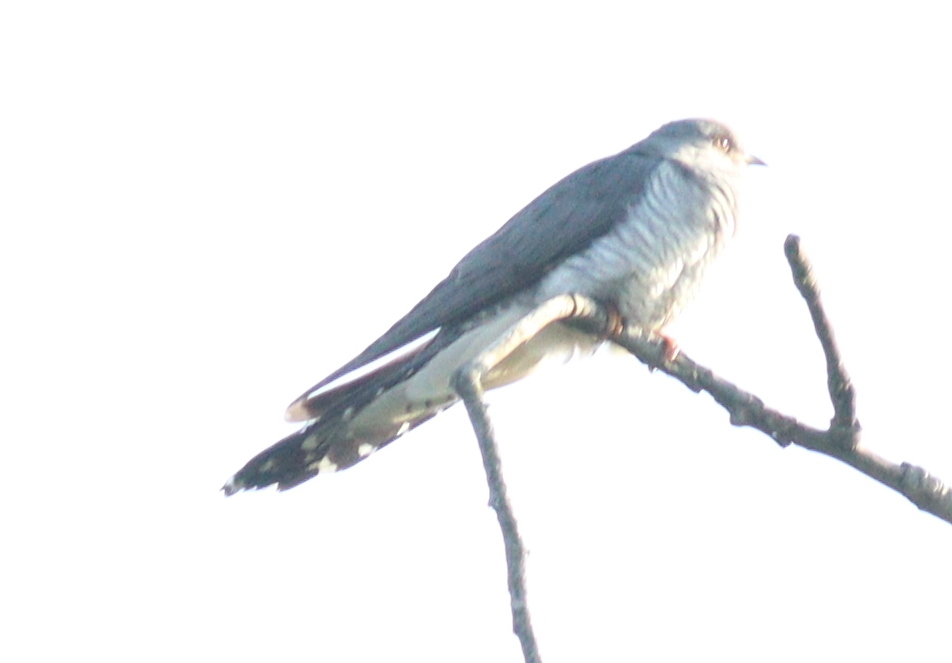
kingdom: Animalia
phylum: Chordata
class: Aves
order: Cuculiformes
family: Cuculidae
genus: Cuculus
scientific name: Cuculus canorus
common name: Common cuckoo
